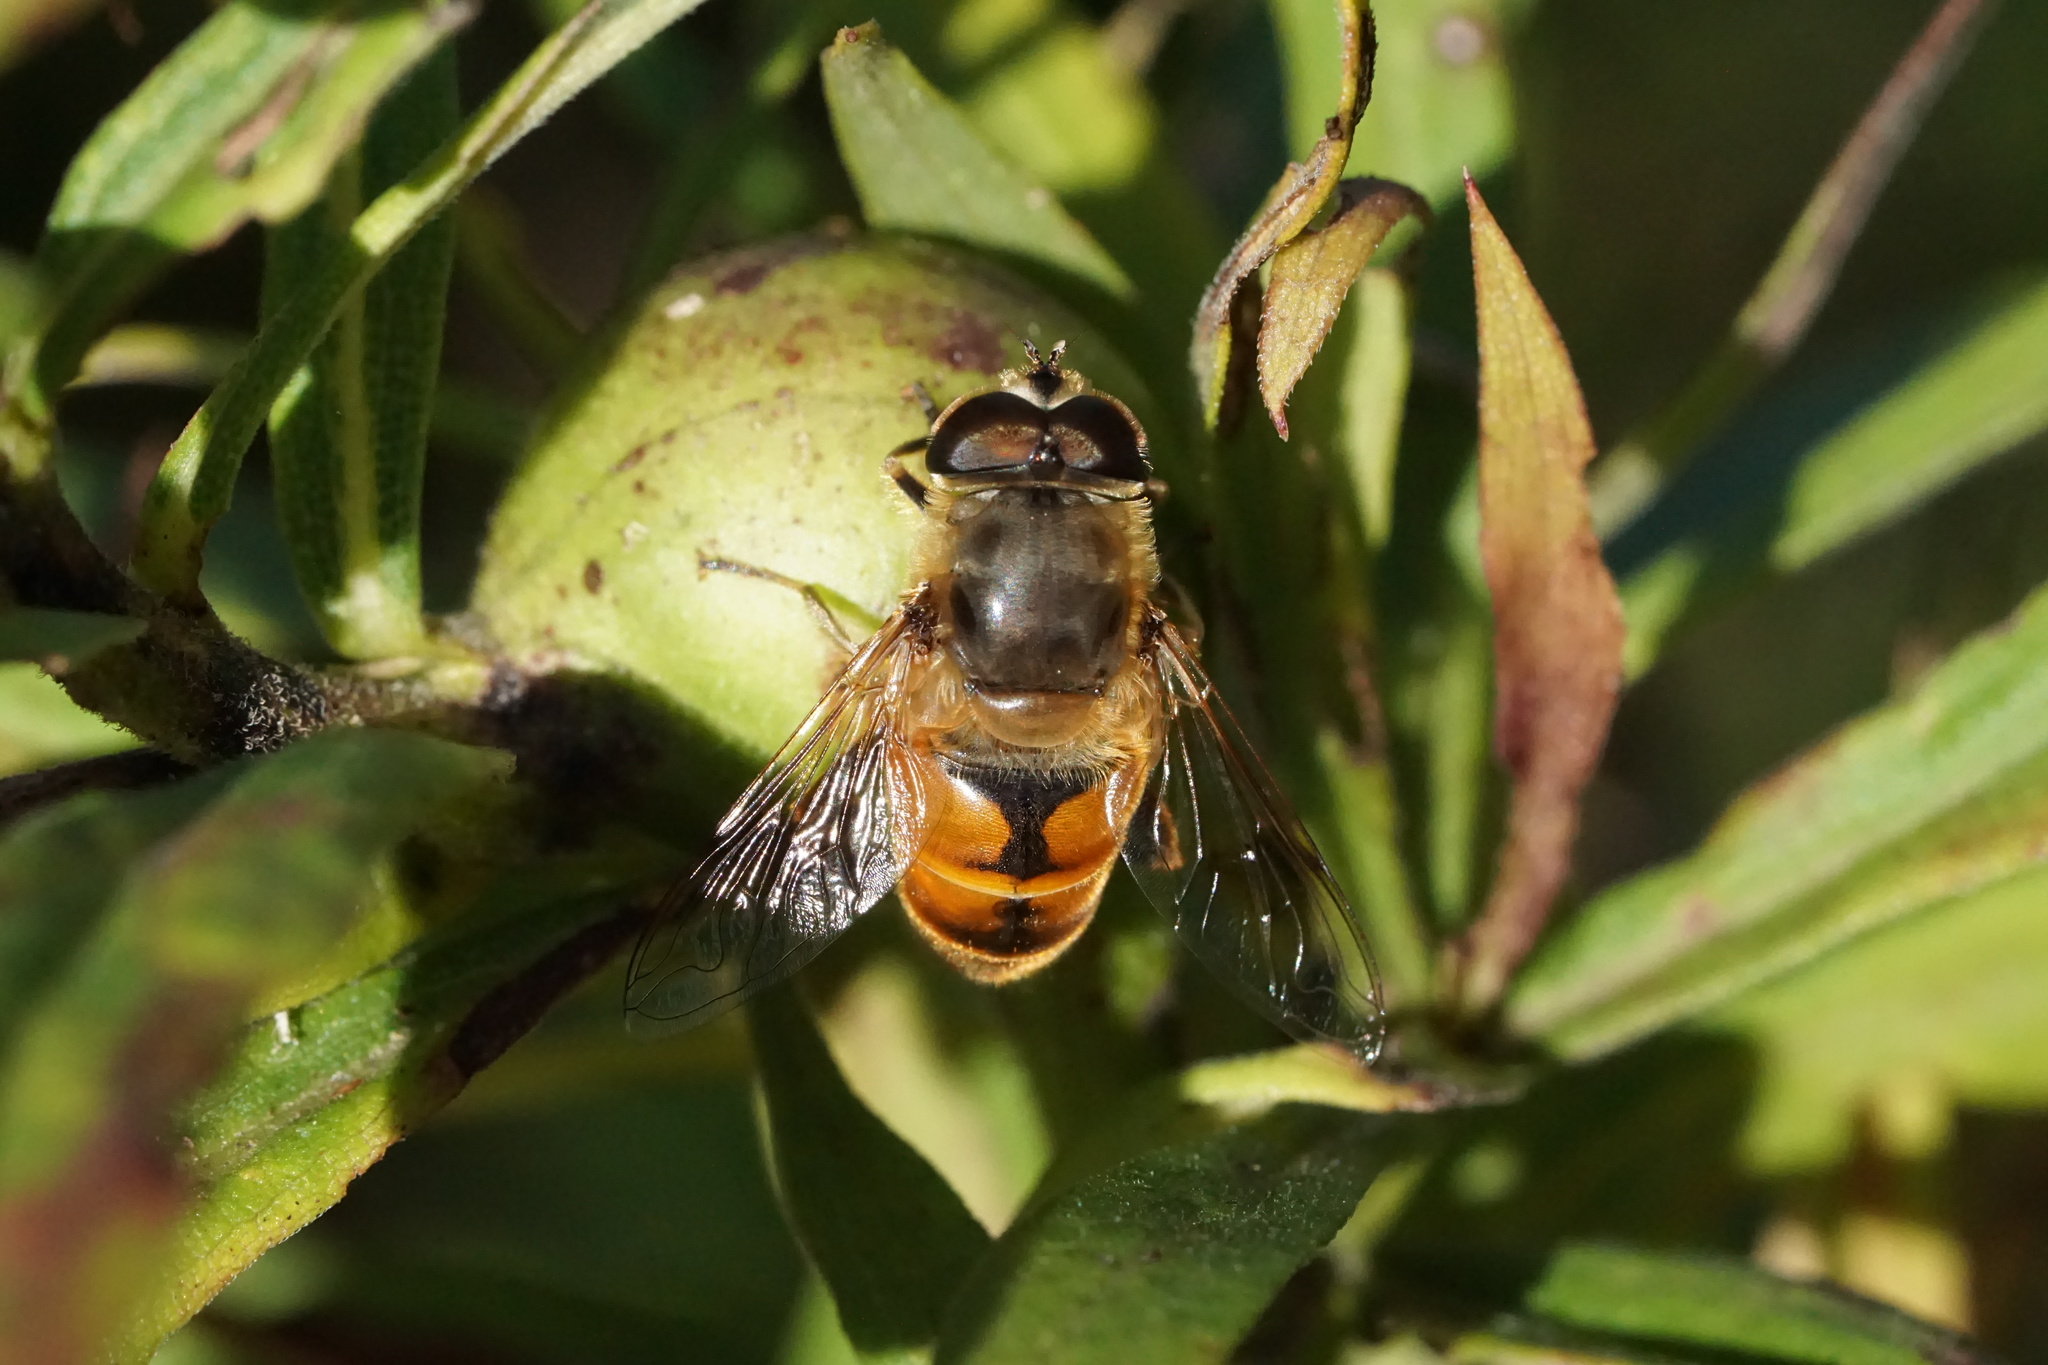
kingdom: Animalia
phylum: Arthropoda
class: Insecta
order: Diptera
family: Syrphidae
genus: Eristalis
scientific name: Eristalis tenax
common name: Drone fly
